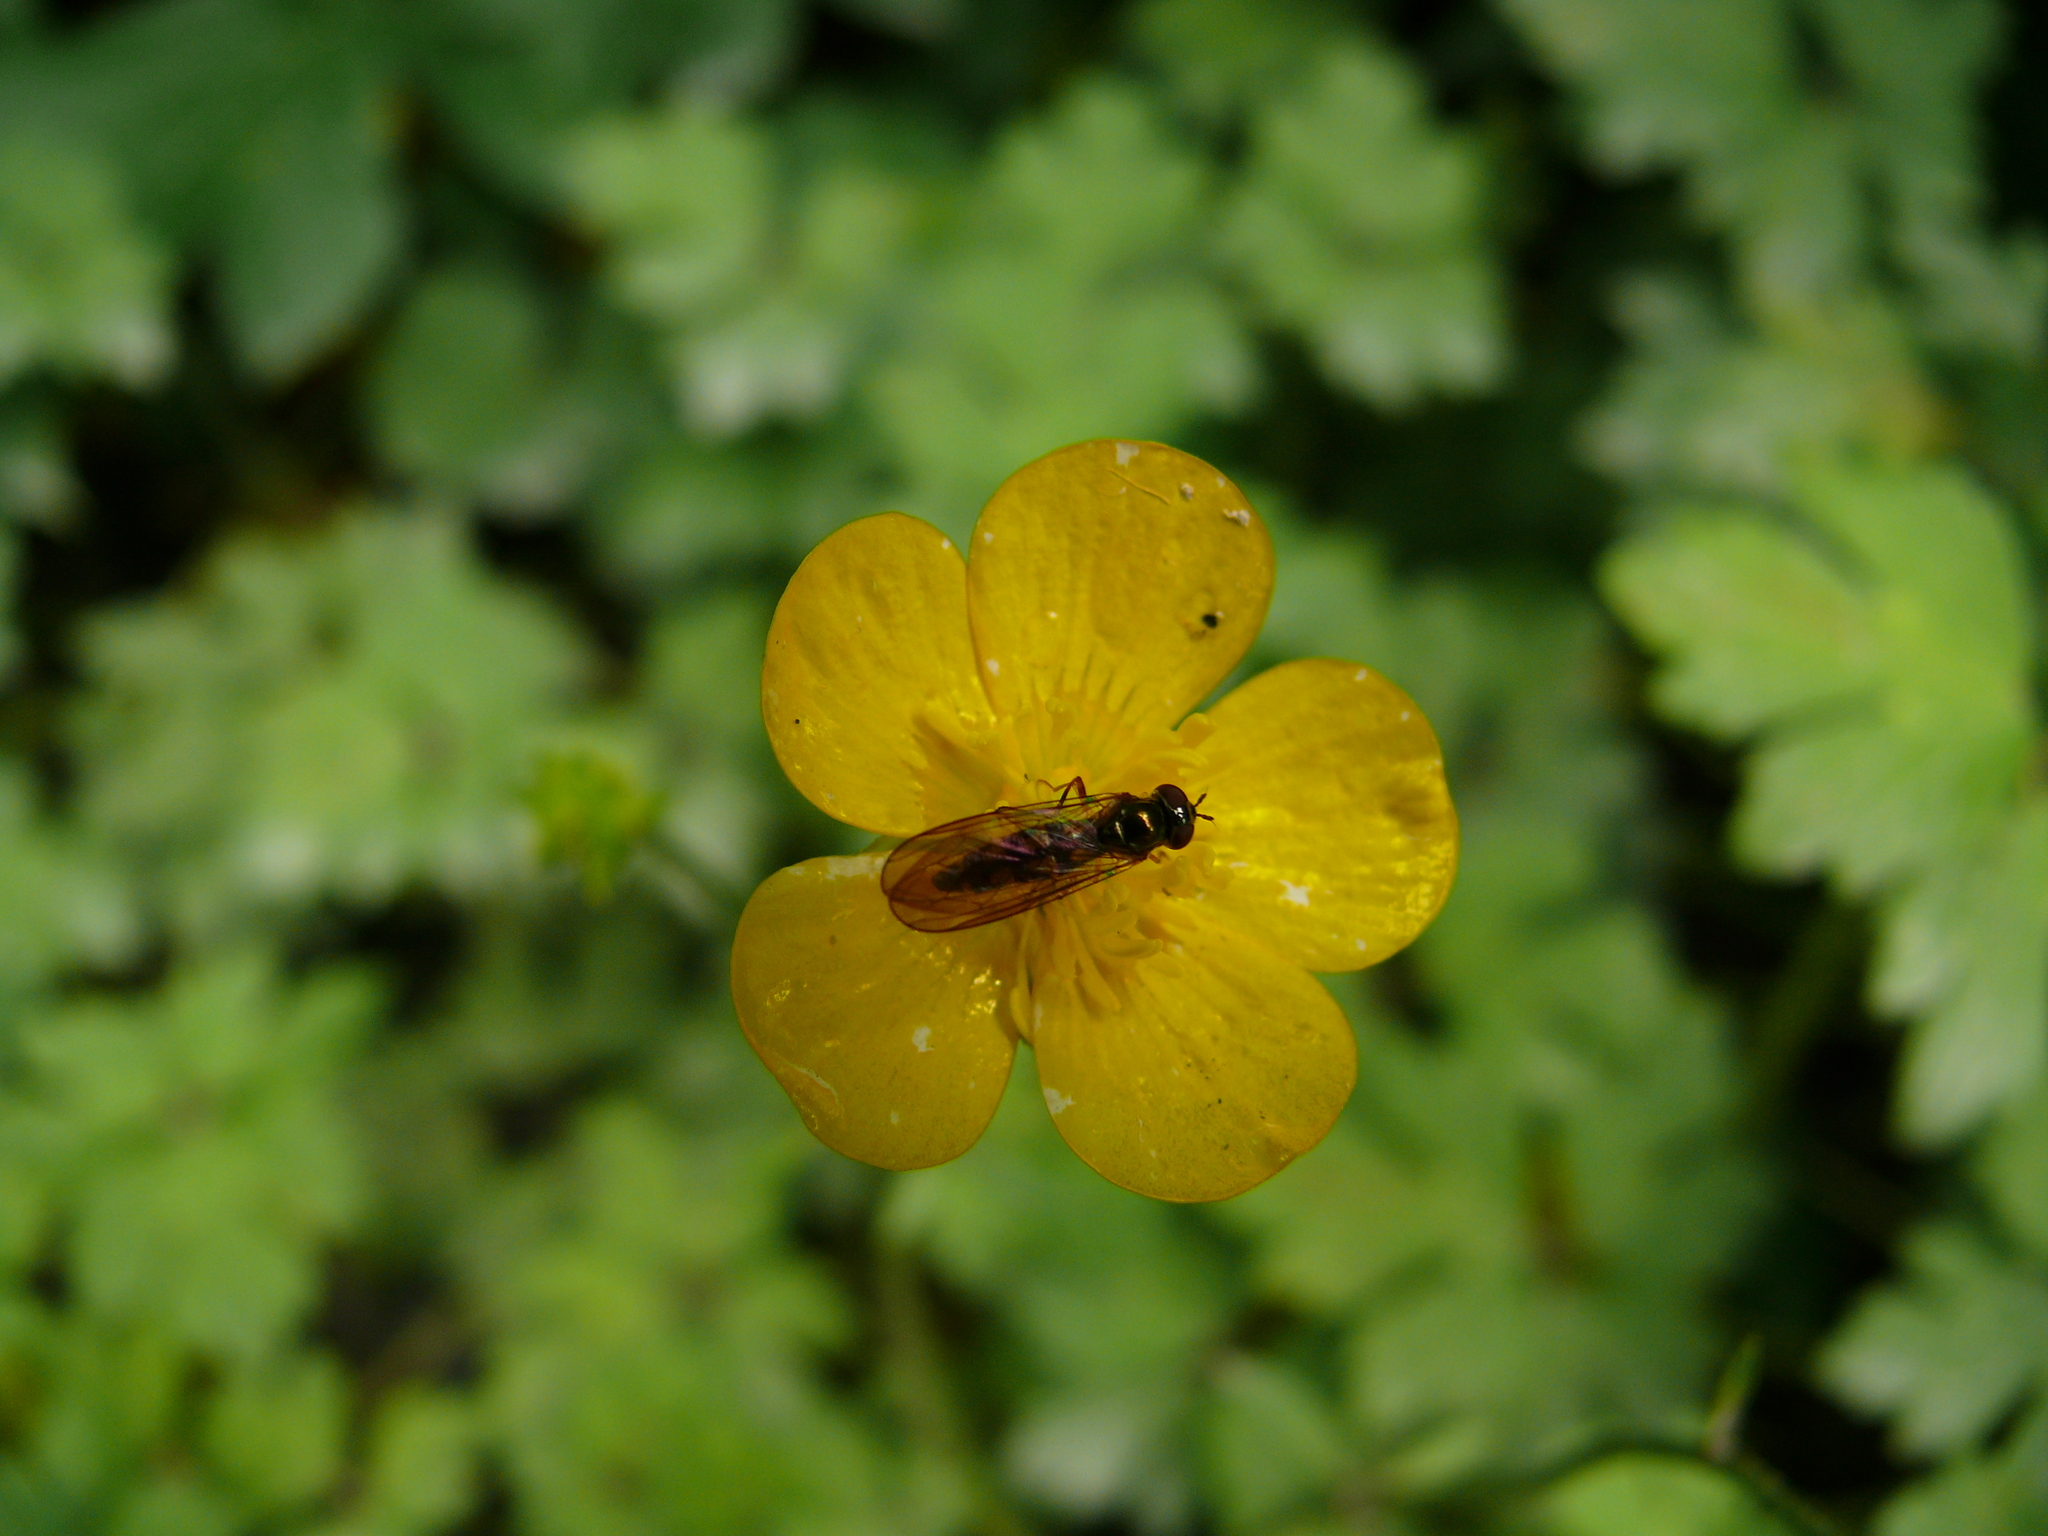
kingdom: Animalia
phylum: Arthropoda
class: Insecta
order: Diptera
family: Syrphidae
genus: Melanostoma
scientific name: Melanostoma mellina
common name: Hover fly
